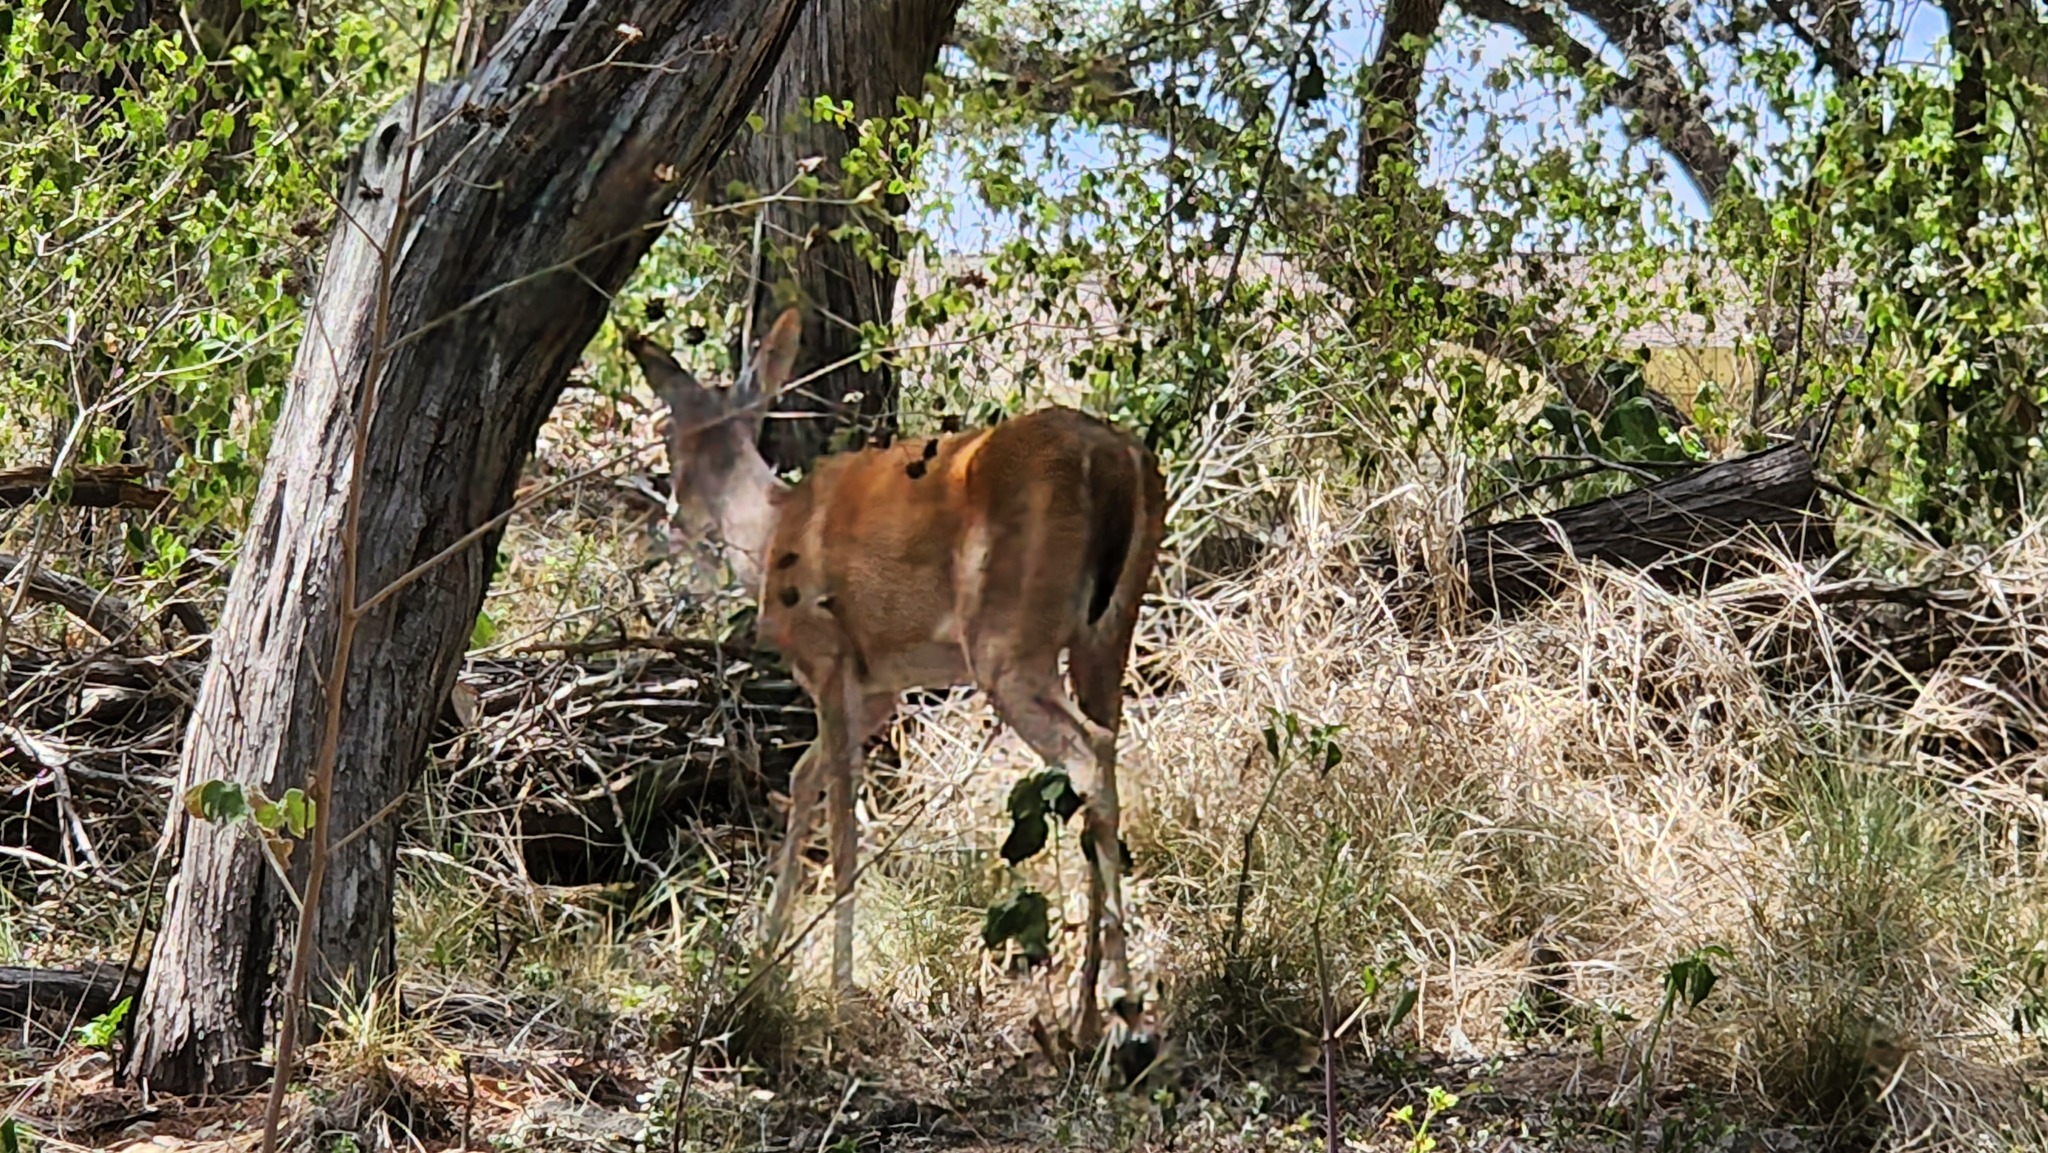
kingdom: Animalia
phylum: Chordata
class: Mammalia
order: Artiodactyla
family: Cervidae
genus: Odocoileus
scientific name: Odocoileus virginianus
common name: White-tailed deer
